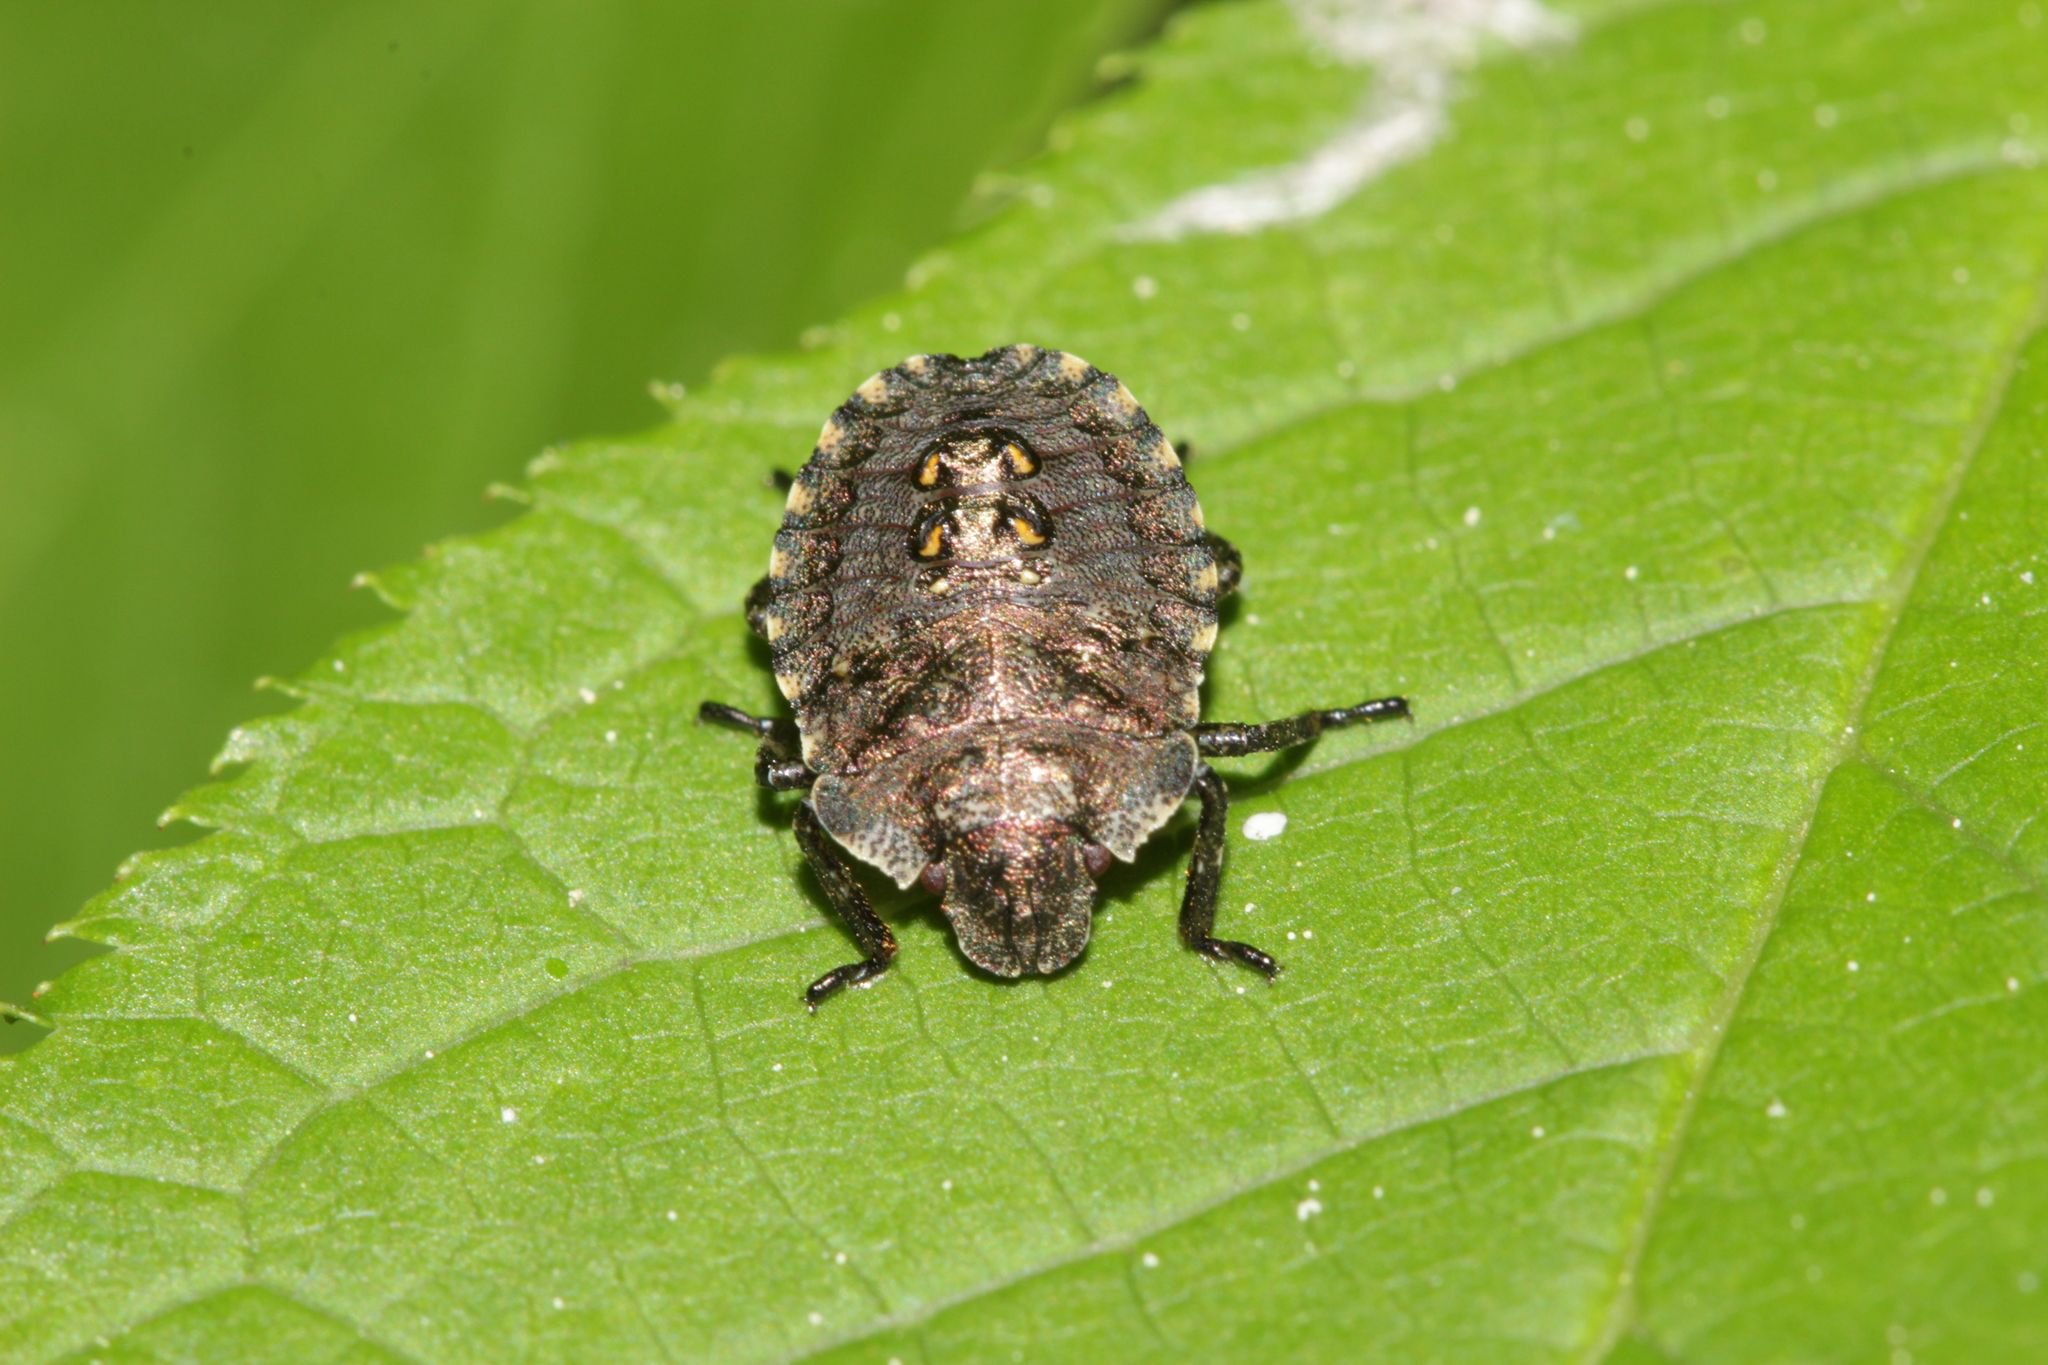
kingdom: Animalia
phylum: Arthropoda
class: Insecta
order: Hemiptera
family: Pentatomidae
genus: Pentatoma
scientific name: Pentatoma rufipes
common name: Forest bug
